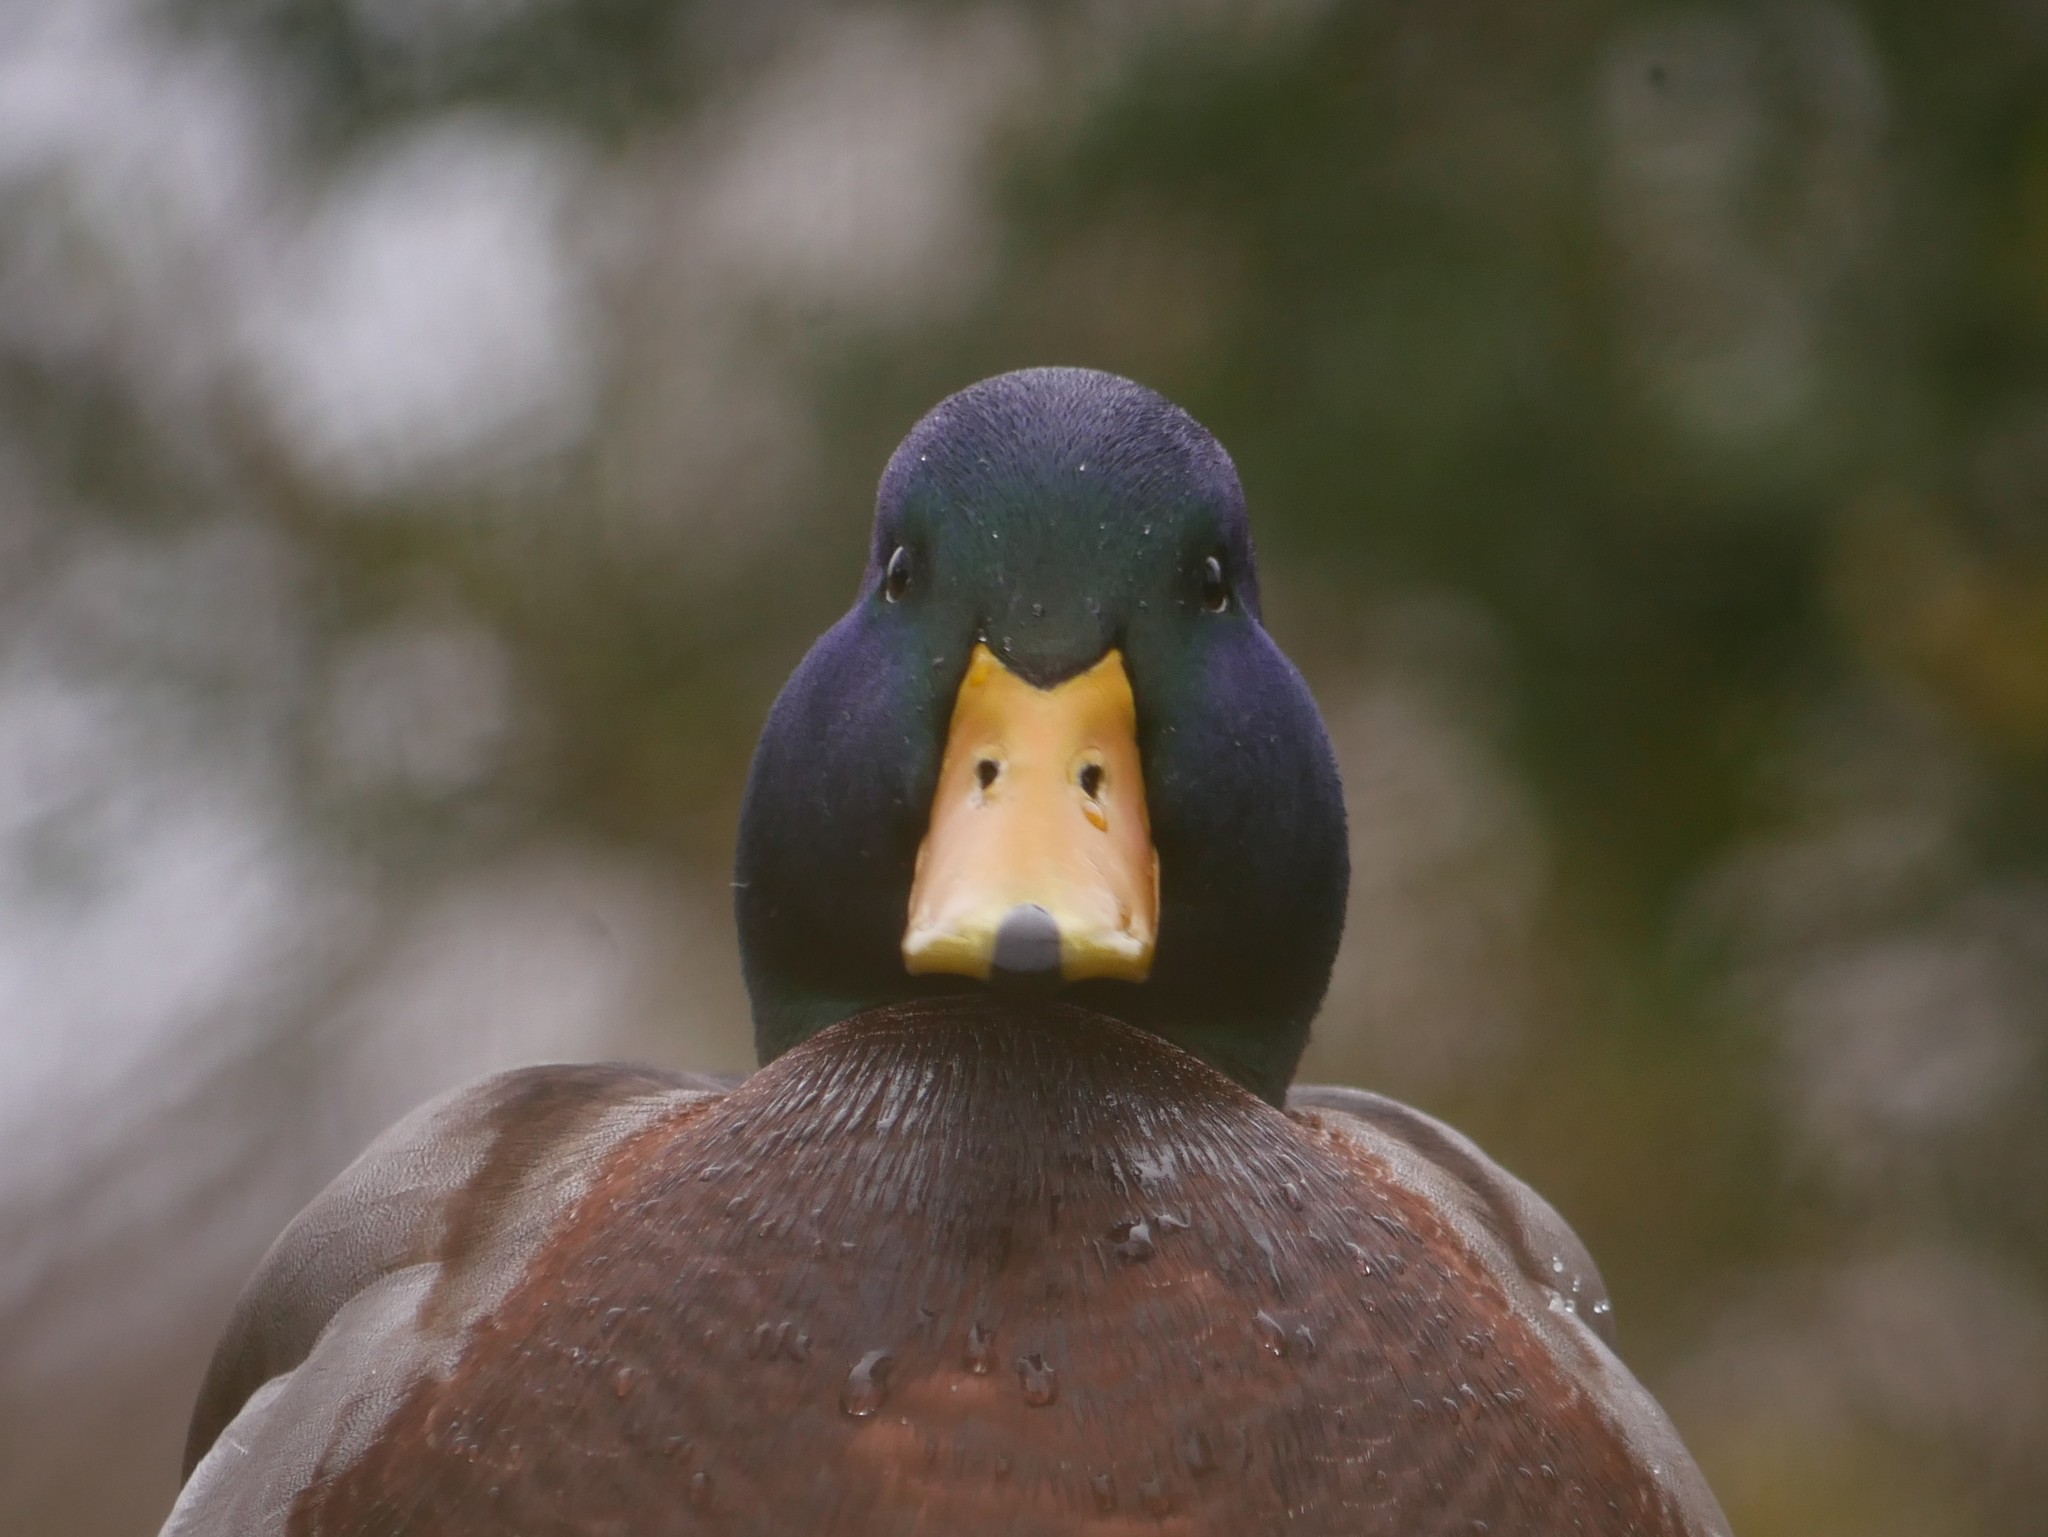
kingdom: Animalia
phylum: Chordata
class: Aves
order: Anseriformes
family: Anatidae
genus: Anas
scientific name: Anas platyrhynchos
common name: Mallard
